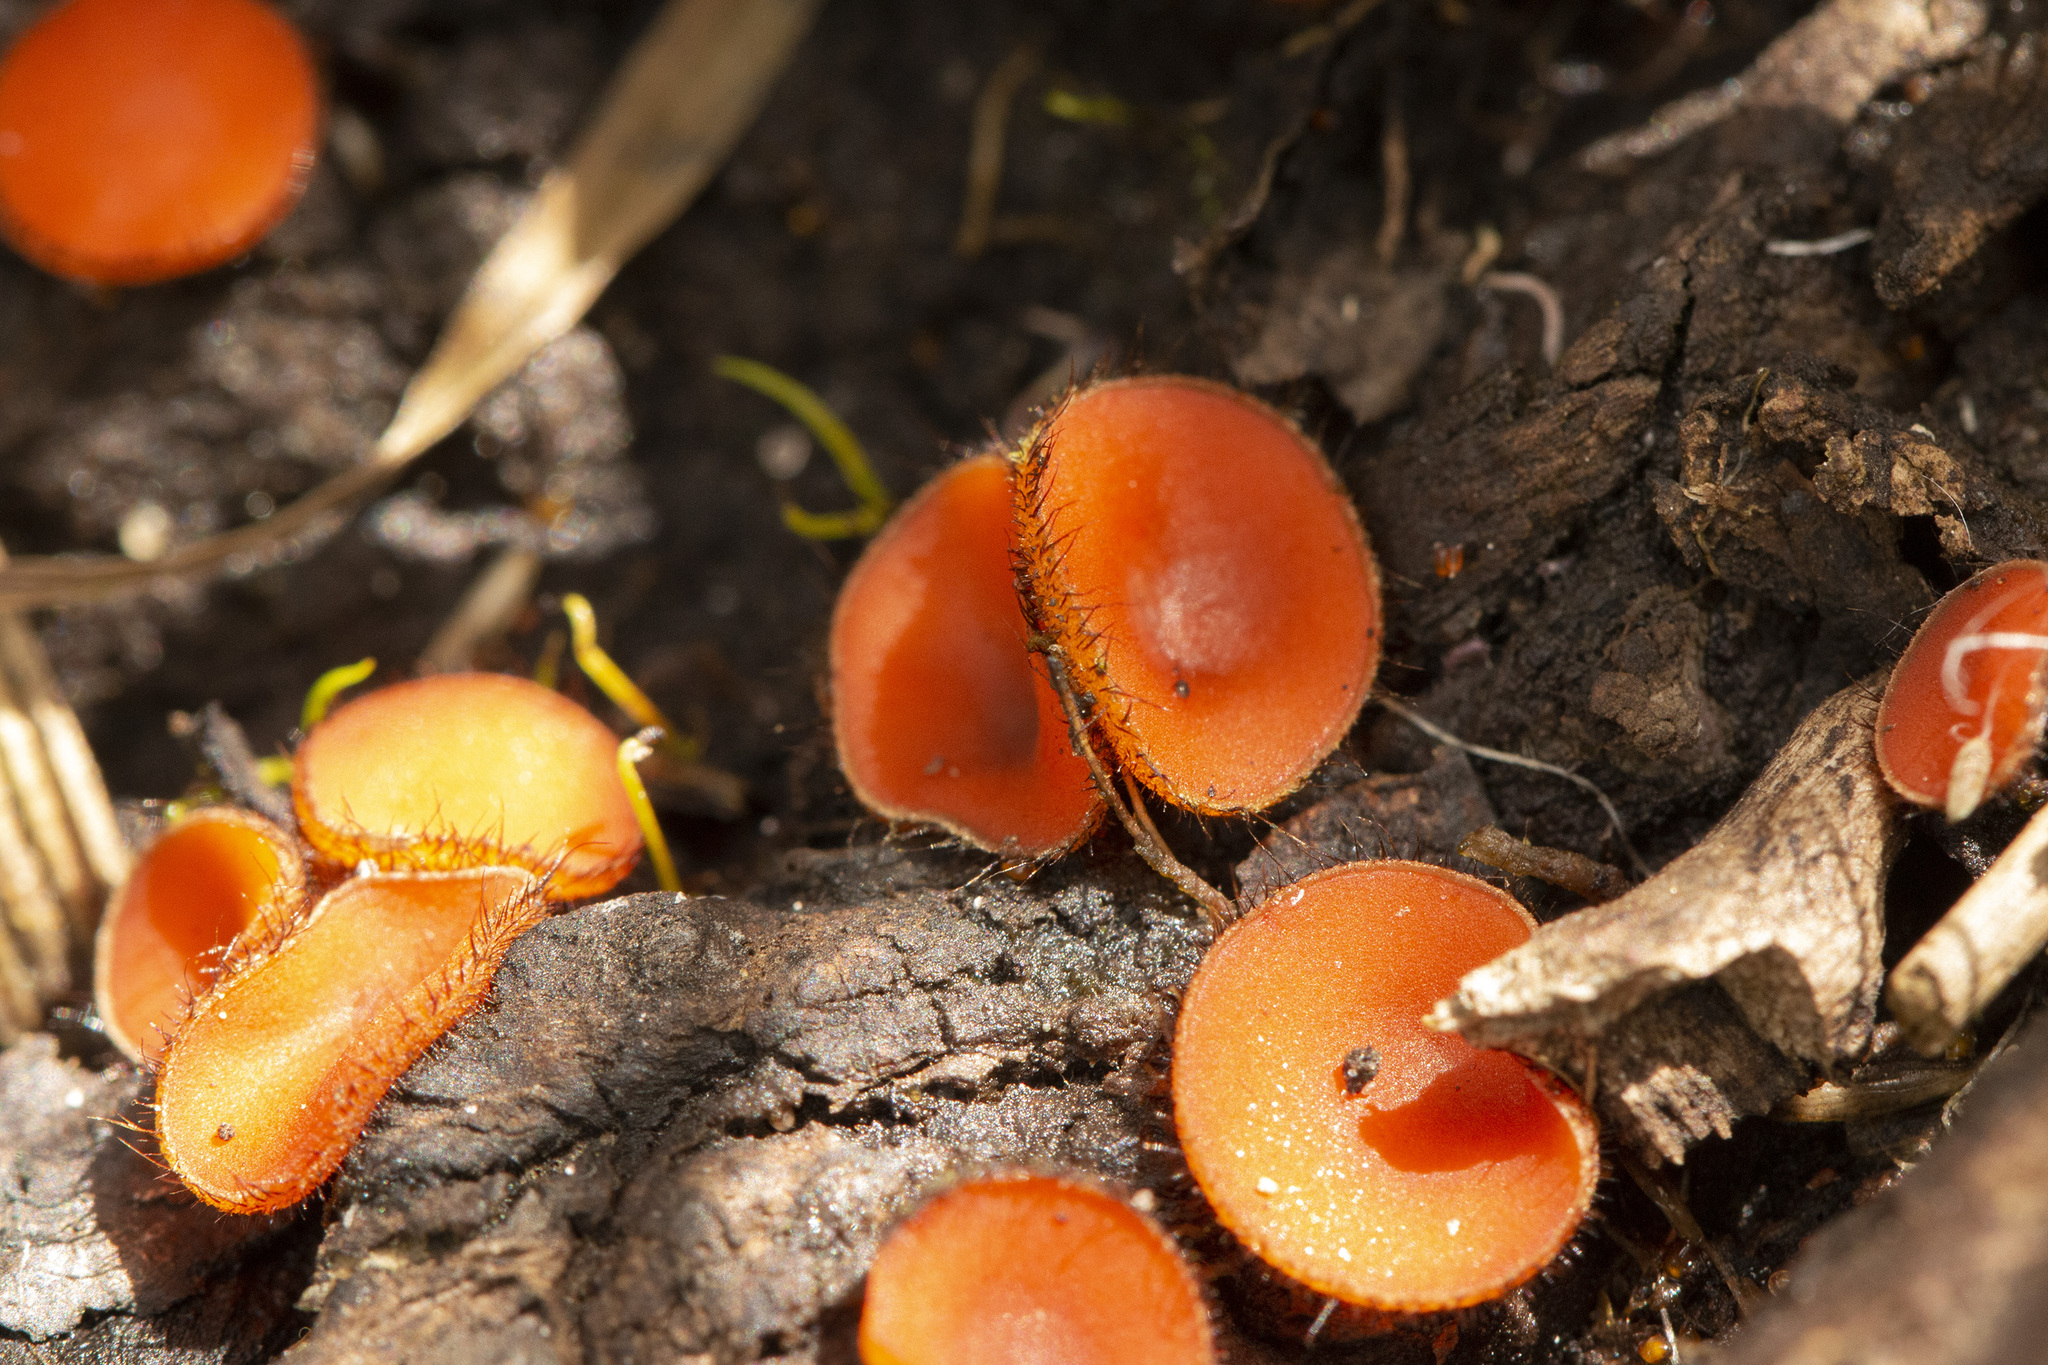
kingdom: Fungi
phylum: Ascomycota
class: Pezizomycetes
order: Pezizales
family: Pyronemataceae
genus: Scutellinia
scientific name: Scutellinia
